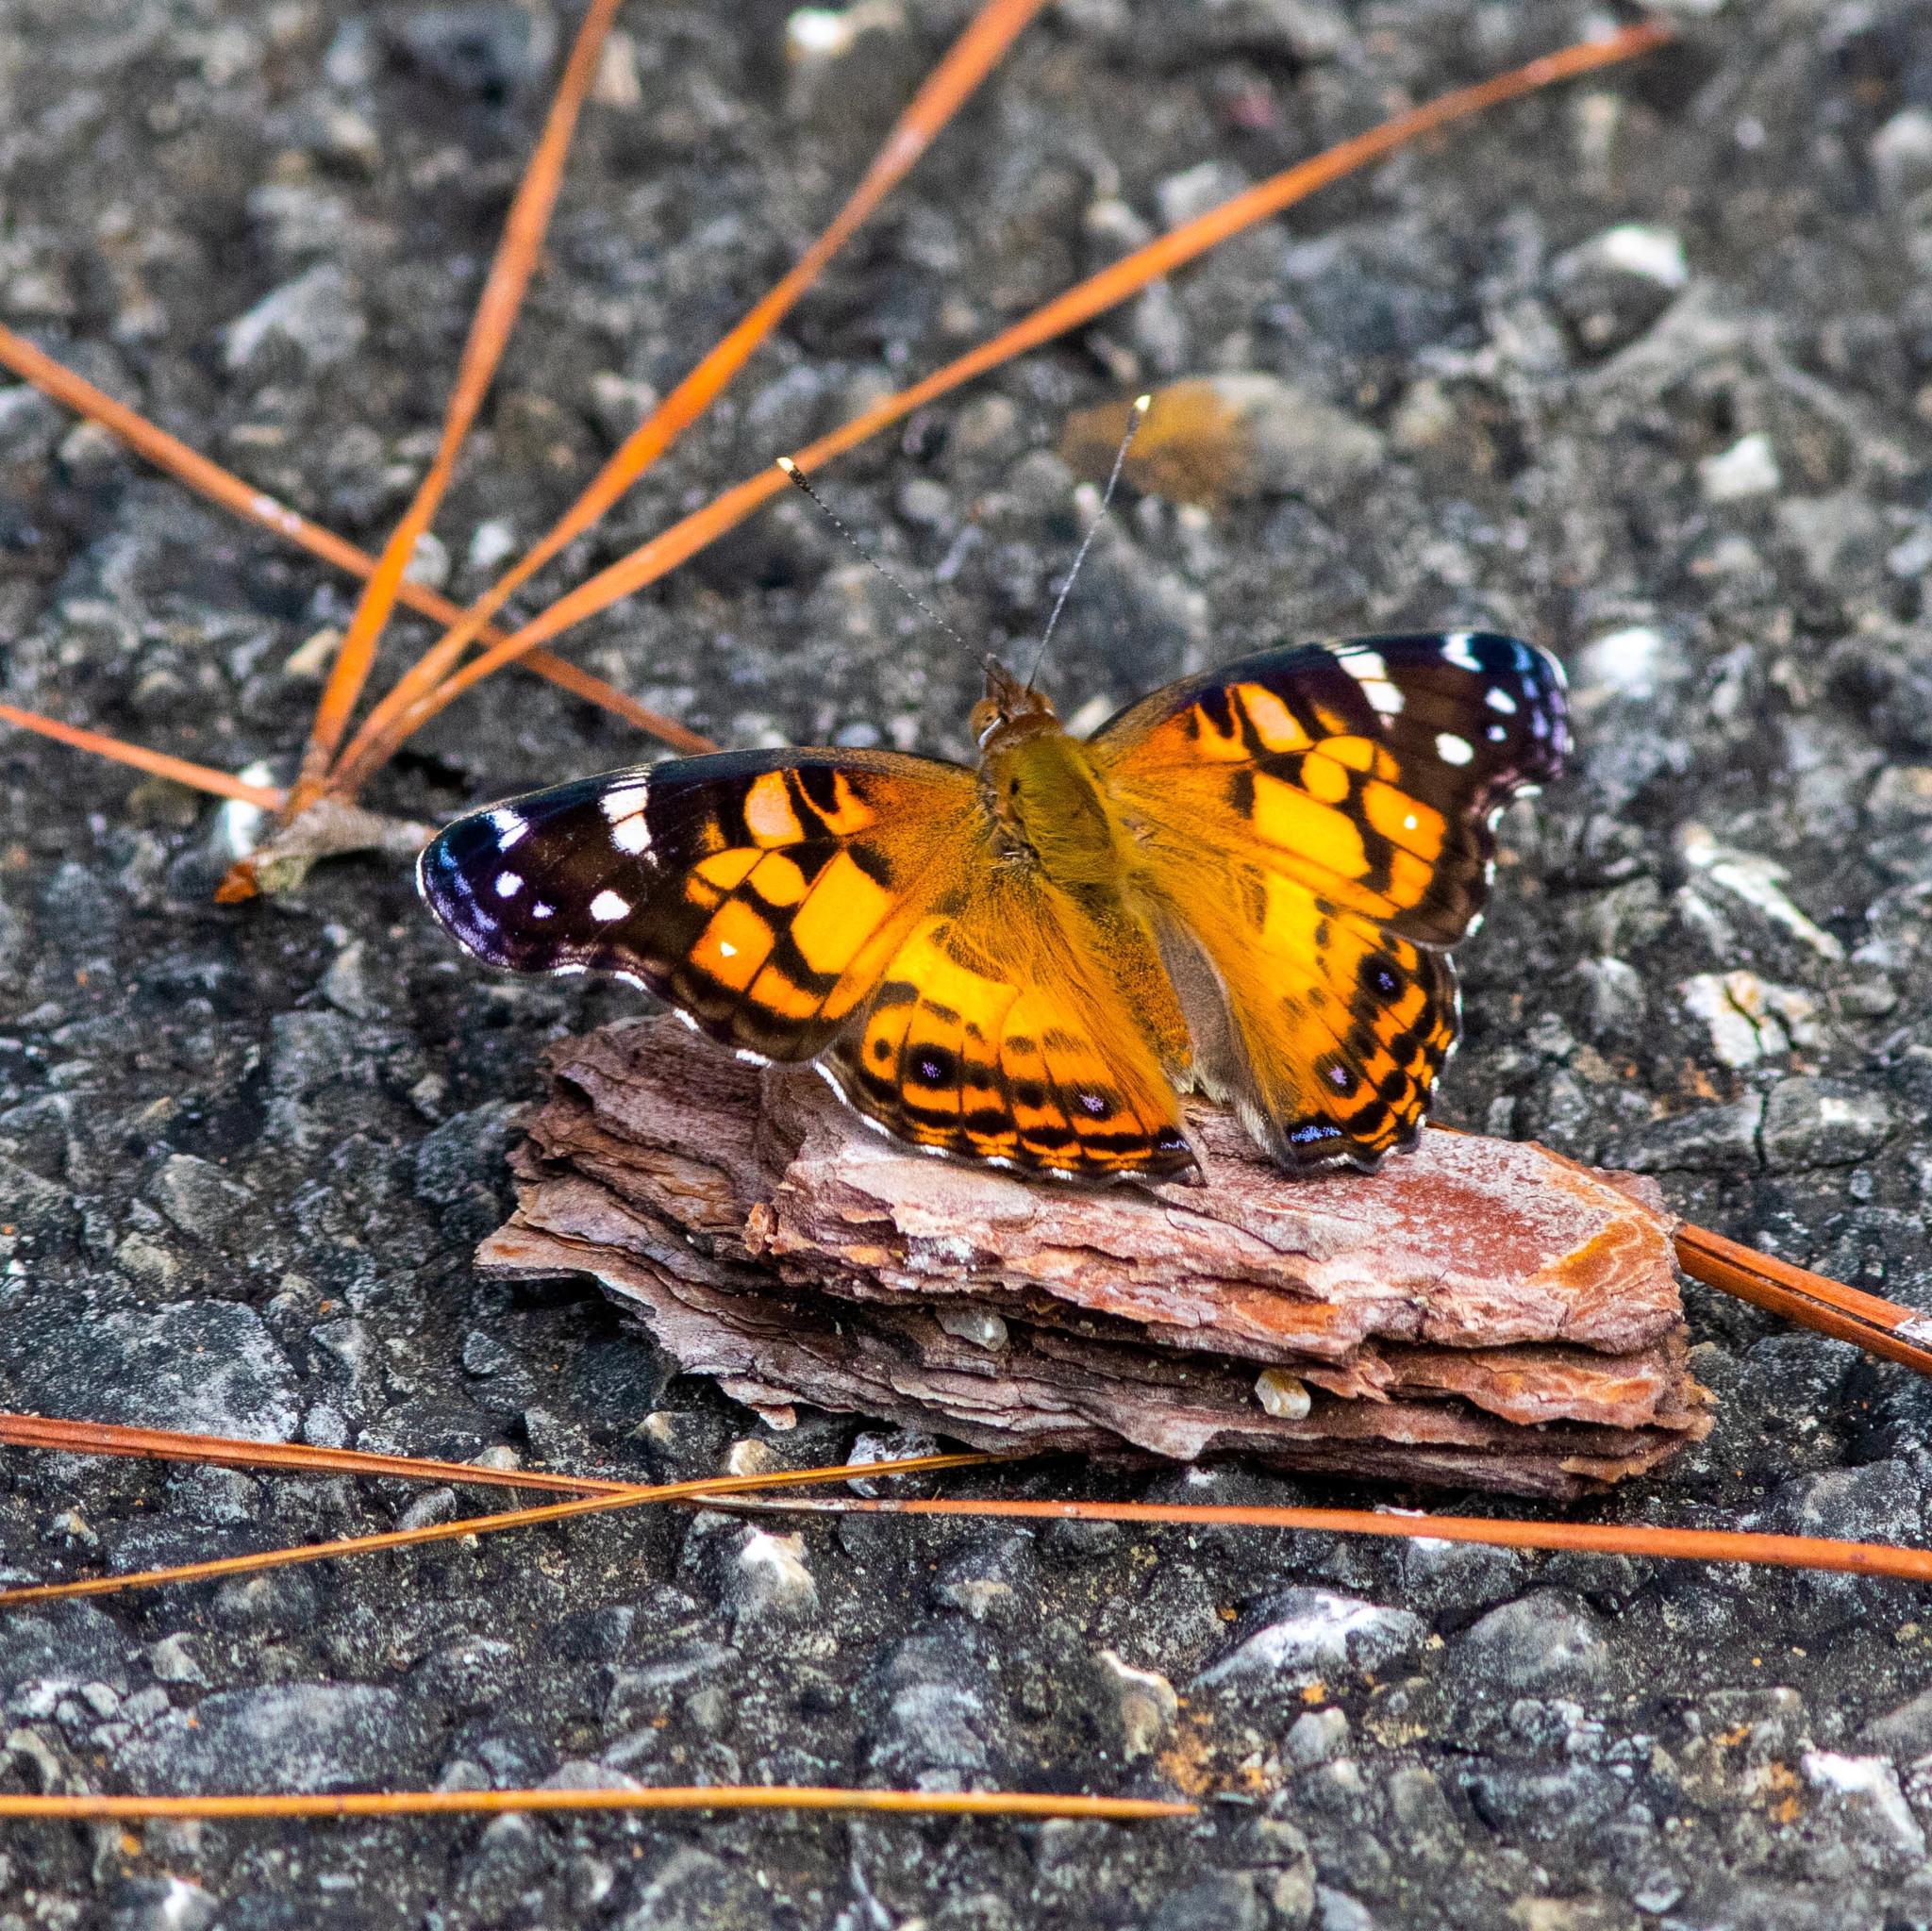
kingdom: Animalia
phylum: Arthropoda
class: Insecta
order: Lepidoptera
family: Nymphalidae
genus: Vanessa
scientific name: Vanessa virginiensis
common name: American lady
